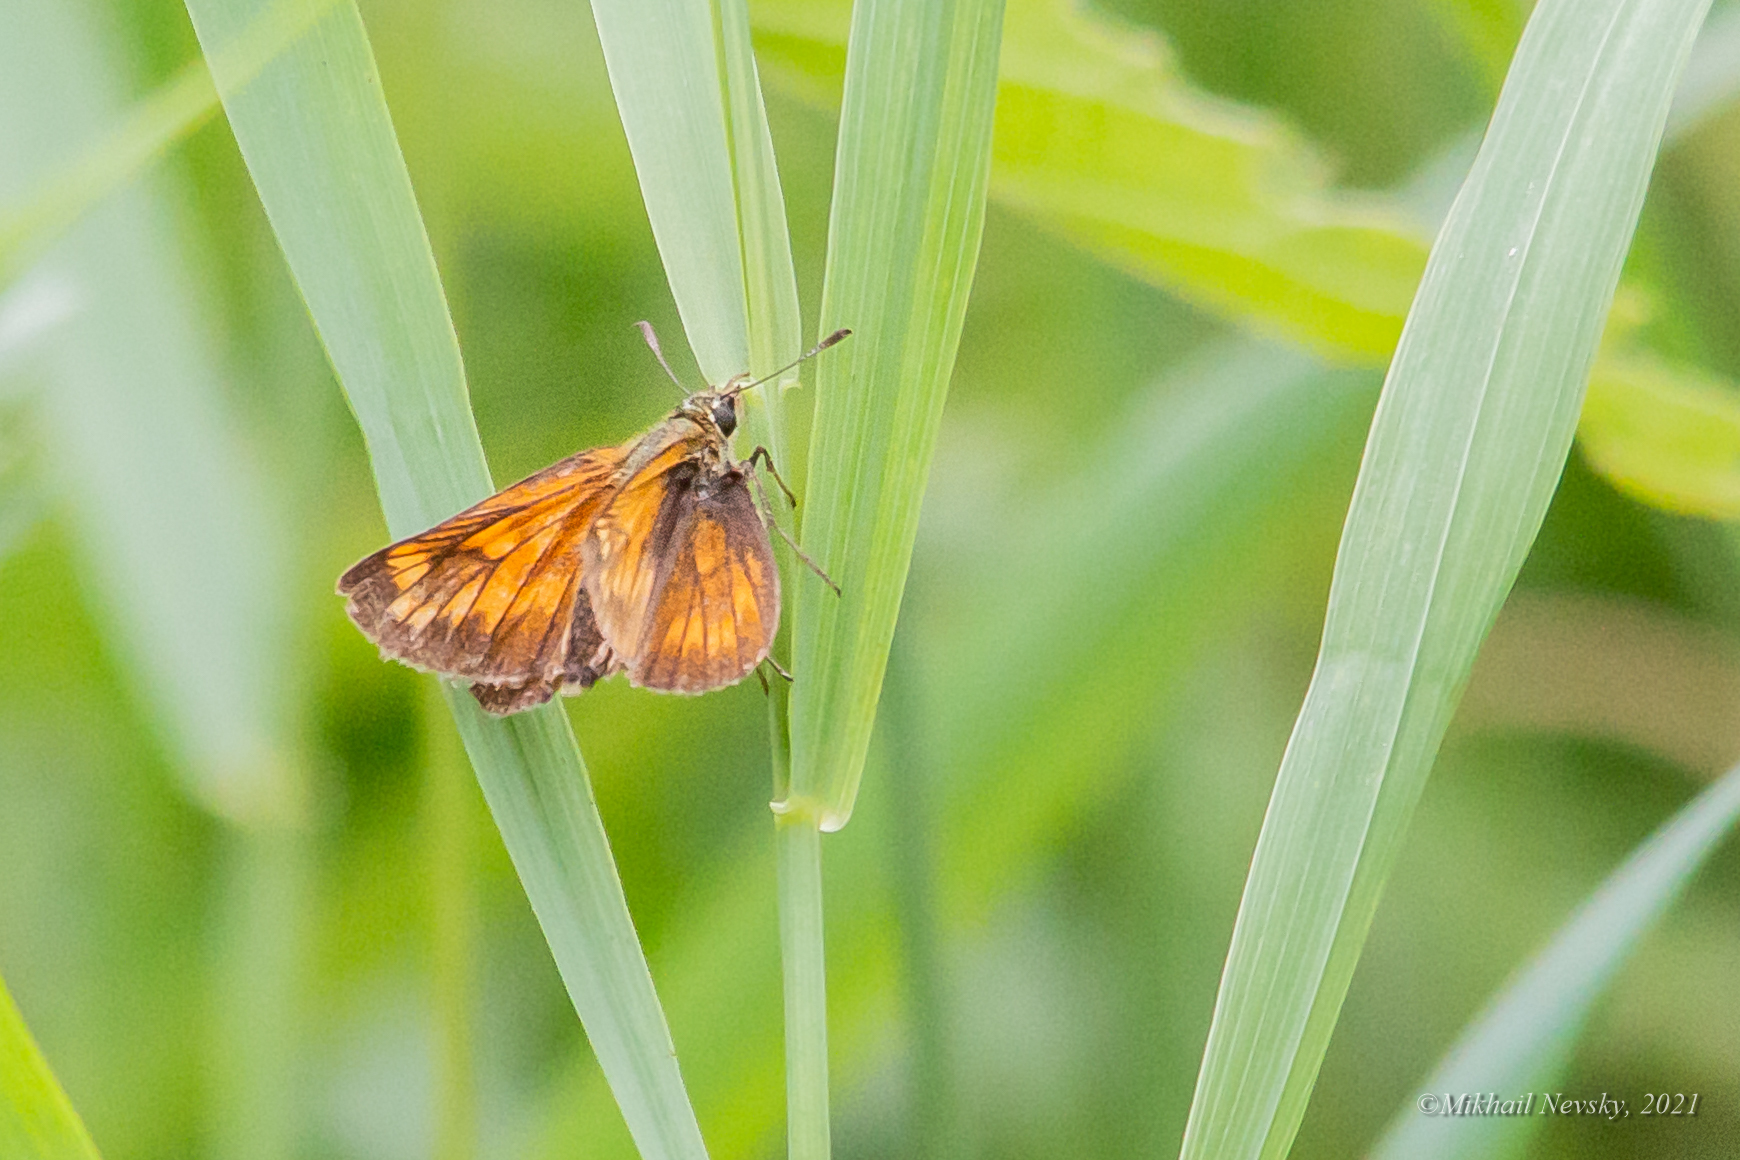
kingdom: Animalia
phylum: Arthropoda
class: Insecta
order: Lepidoptera
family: Hesperiidae
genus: Ochlodes
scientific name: Ochlodes venata
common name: Large skipper
